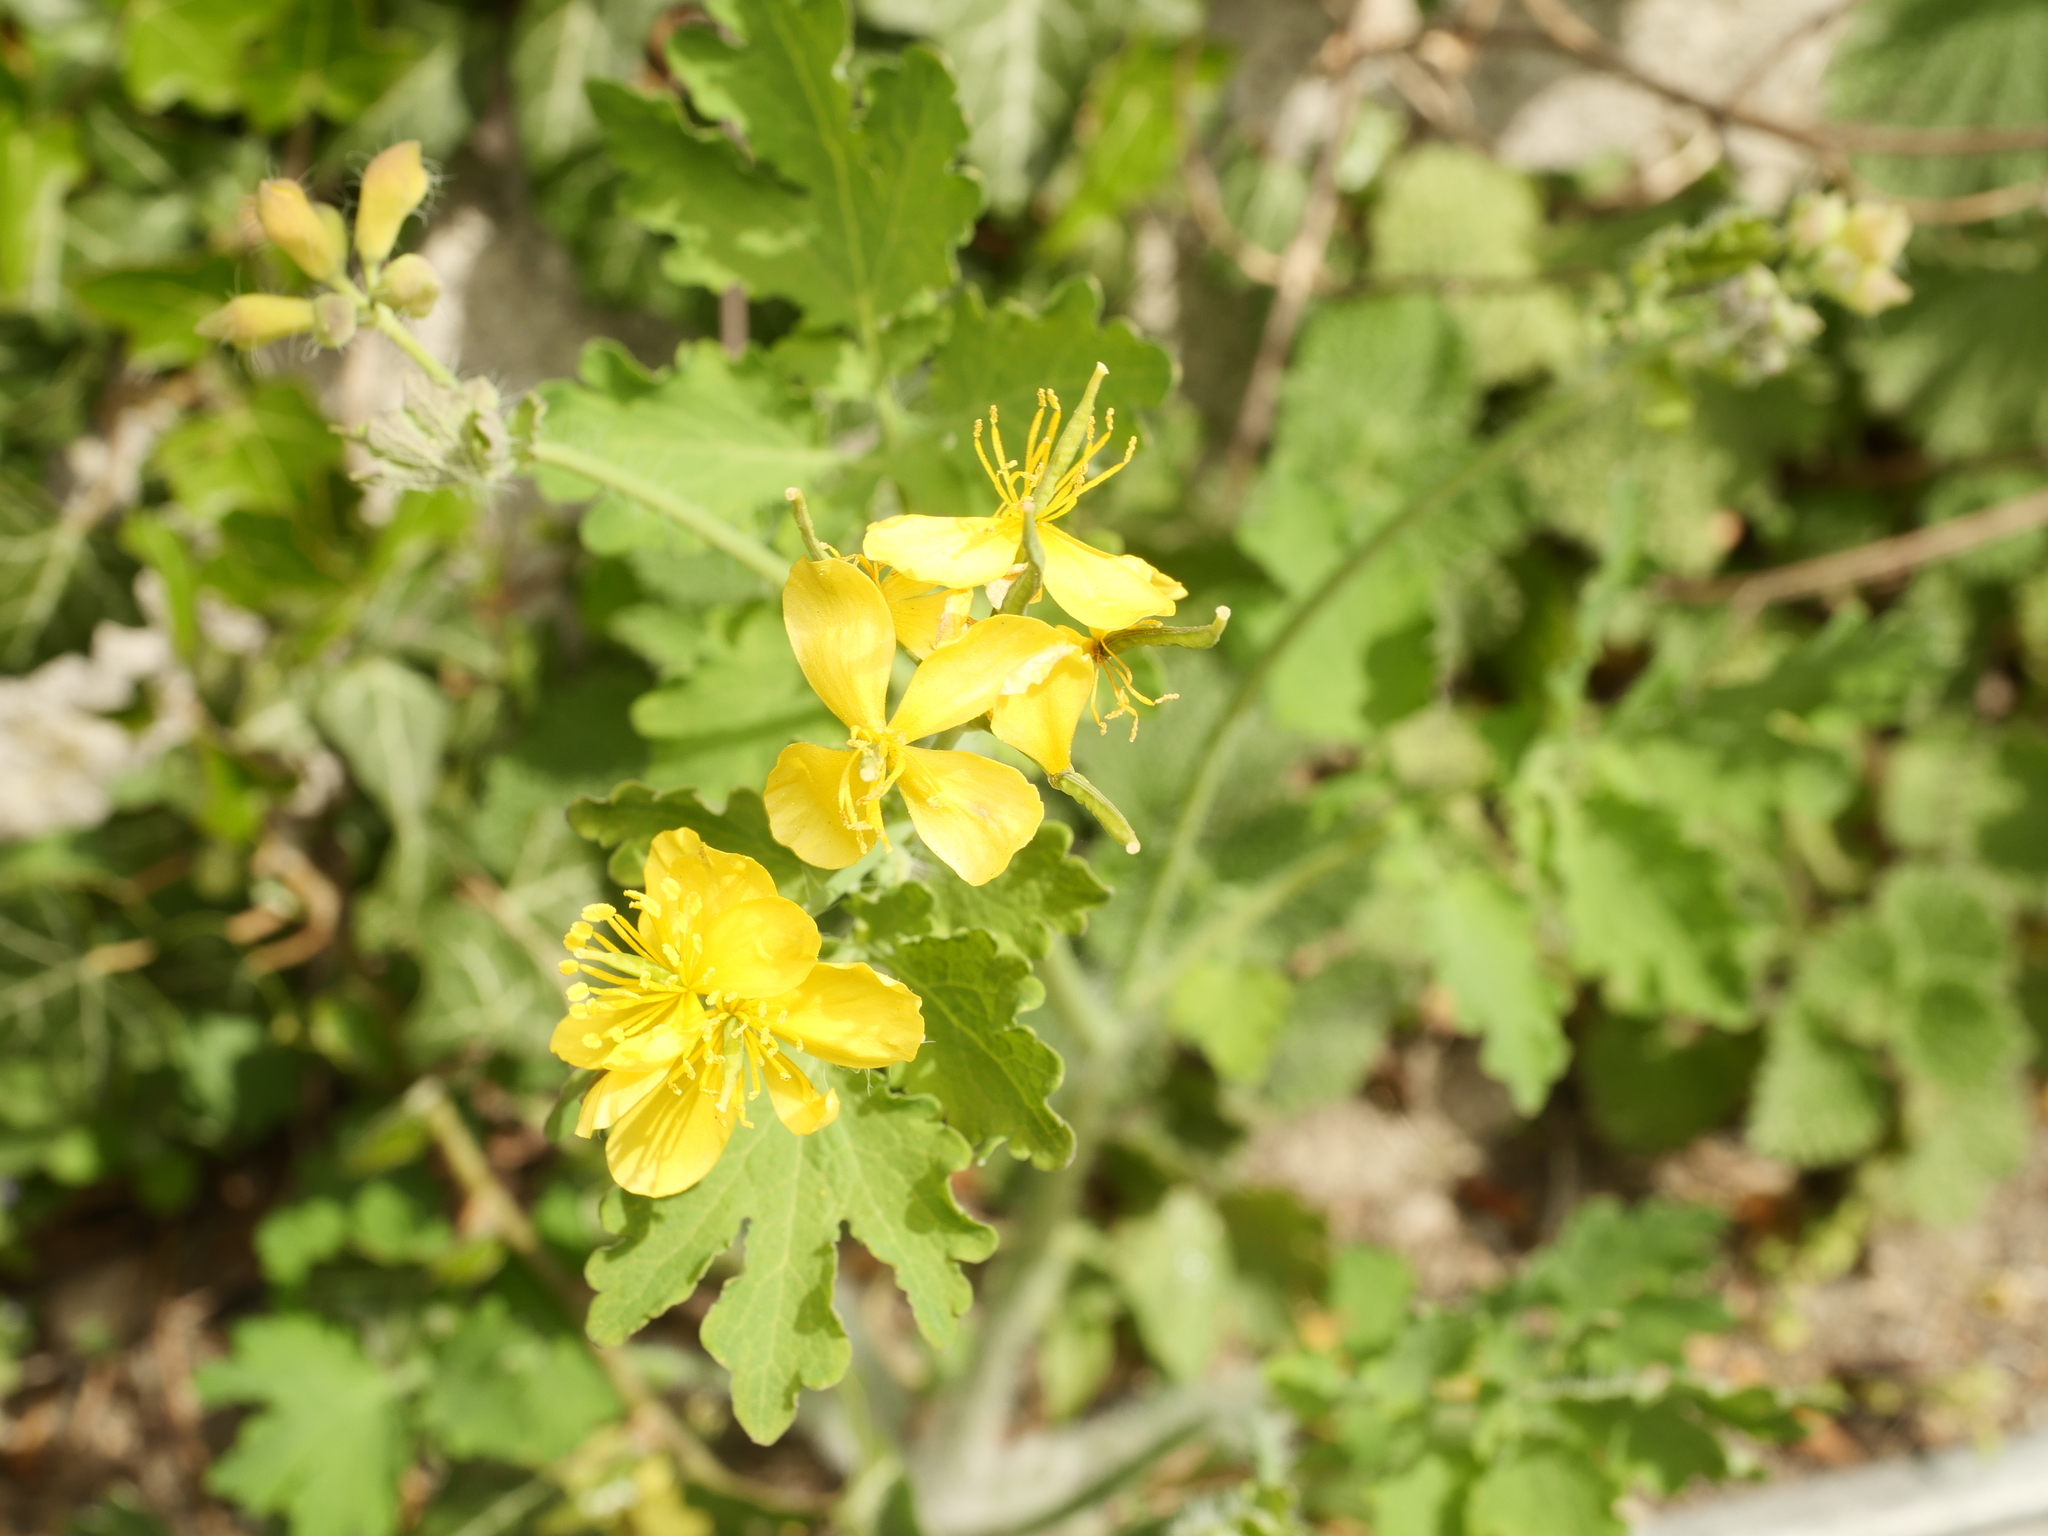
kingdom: Plantae
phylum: Tracheophyta
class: Magnoliopsida
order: Ranunculales
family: Papaveraceae
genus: Chelidonium
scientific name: Chelidonium majus
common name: Greater celandine
